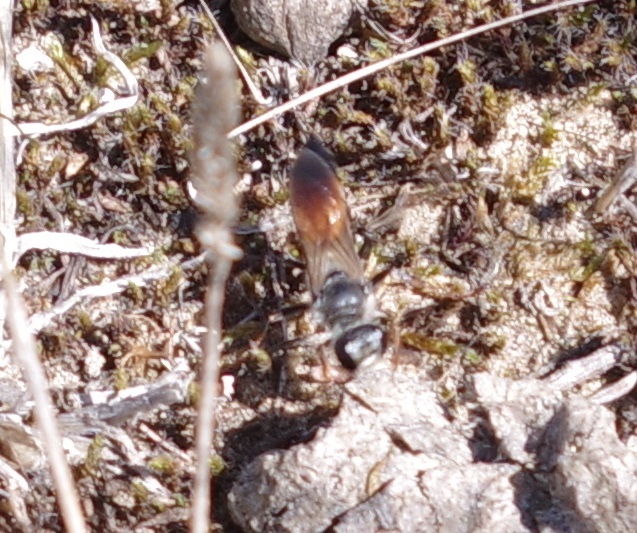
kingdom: Animalia
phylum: Arthropoda
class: Insecta
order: Hymenoptera
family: Sphecidae
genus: Sphex
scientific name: Sphex funerarius
